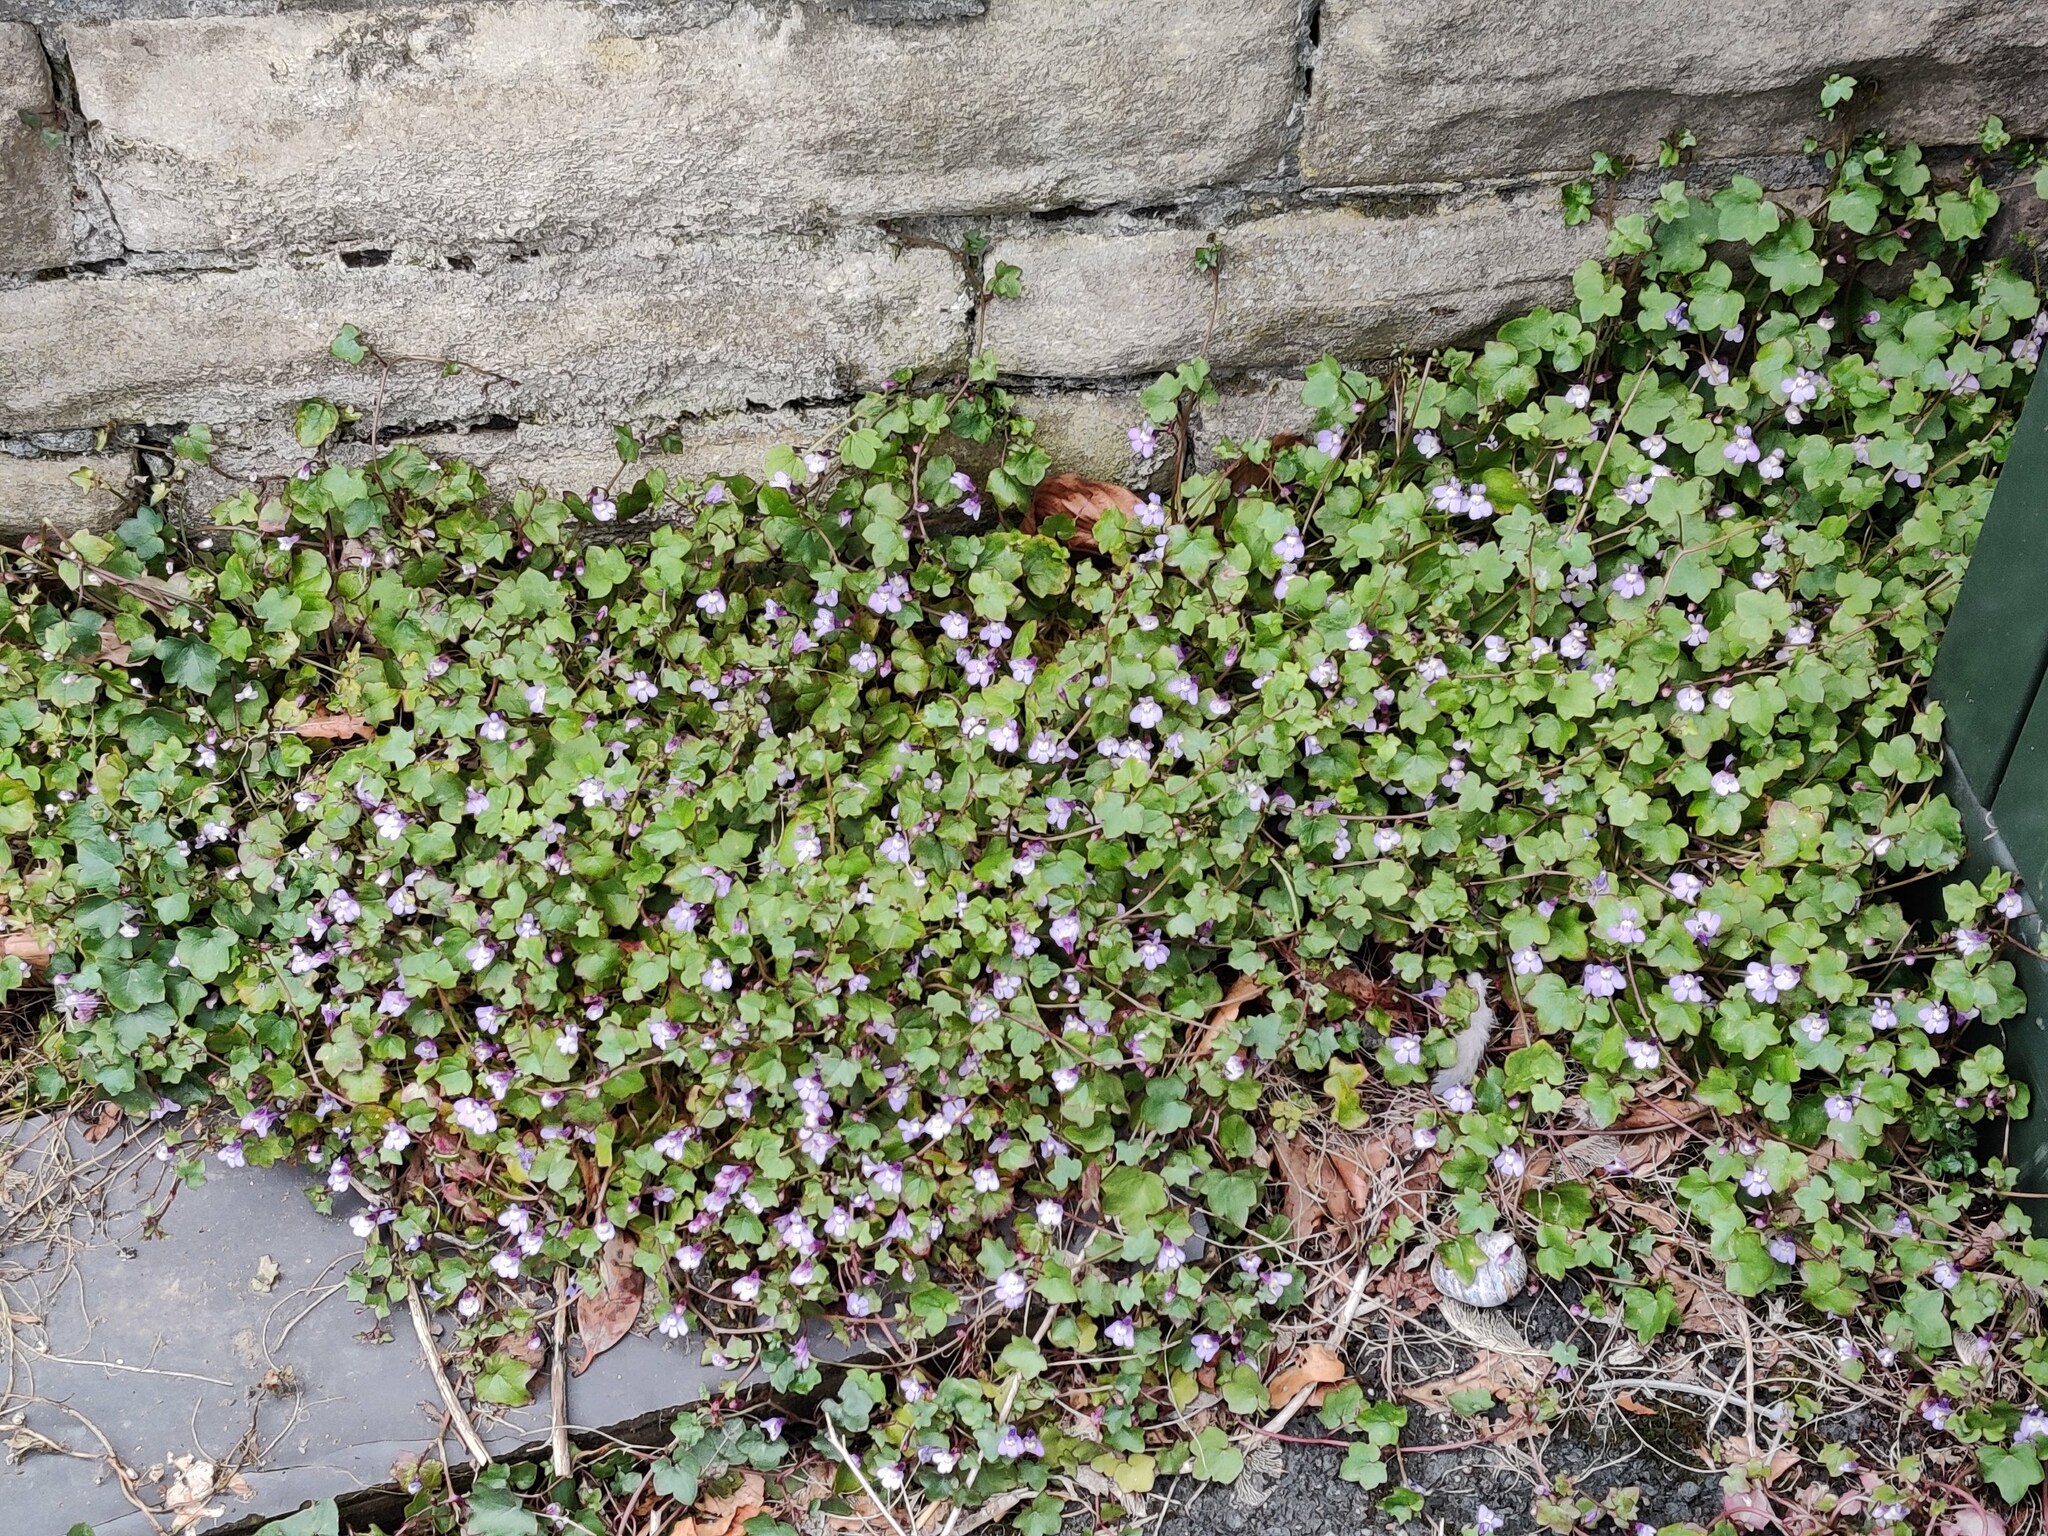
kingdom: Plantae
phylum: Tracheophyta
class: Magnoliopsida
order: Lamiales
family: Plantaginaceae
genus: Cymbalaria
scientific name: Cymbalaria muralis
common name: Ivy-leaved toadflax
